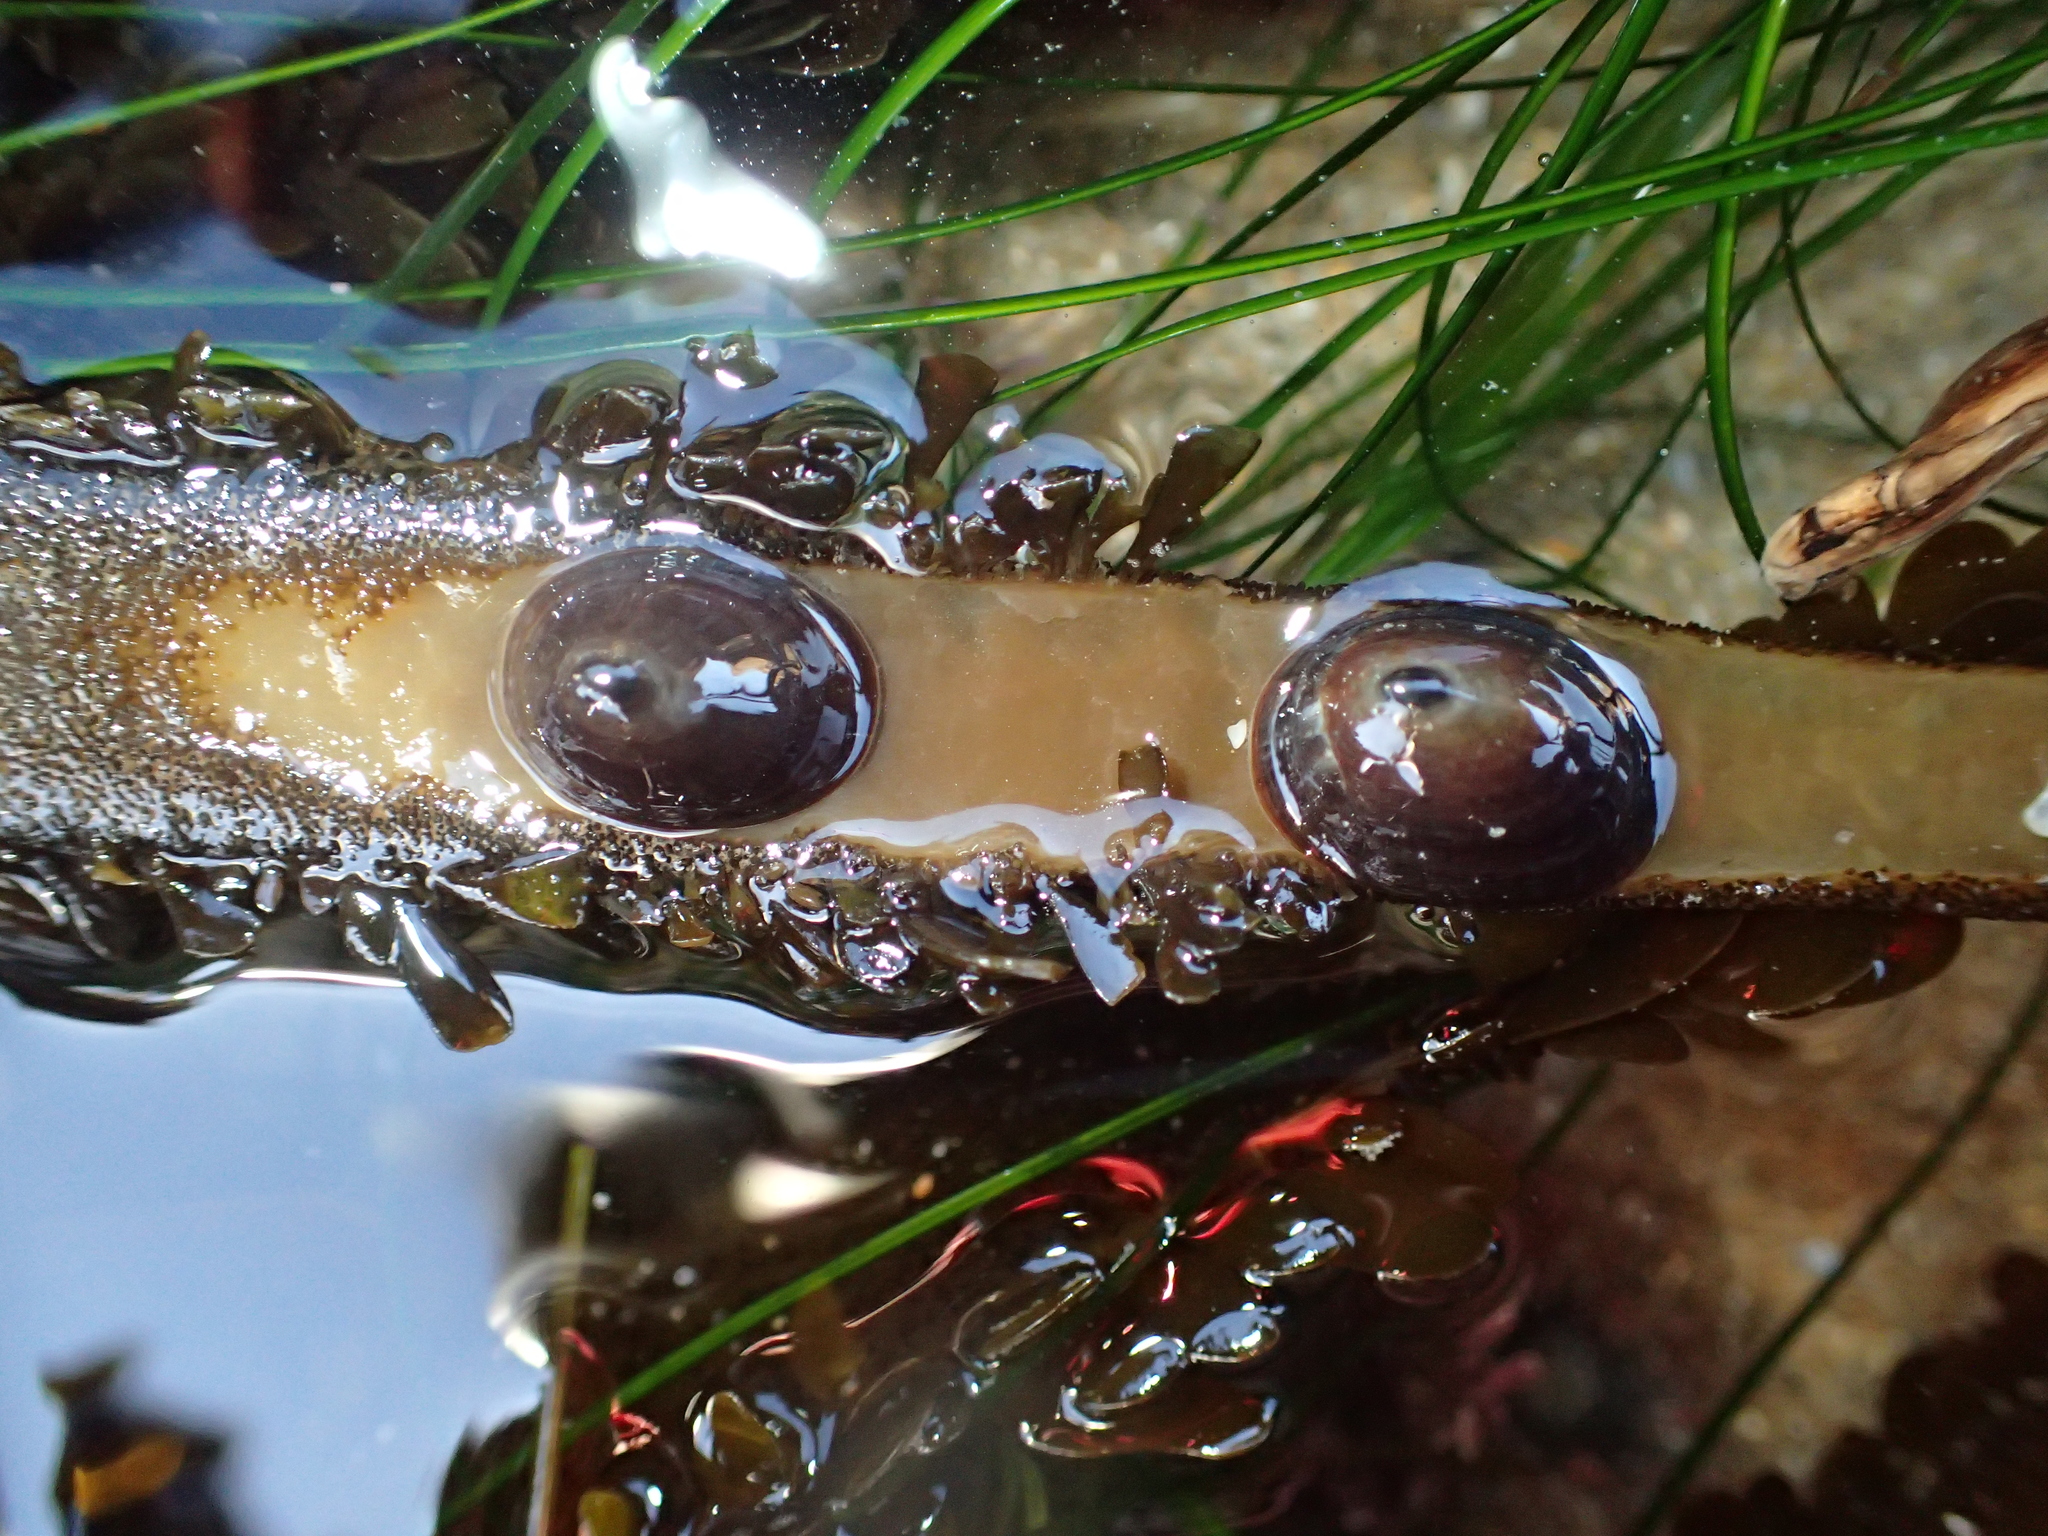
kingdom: Animalia
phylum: Mollusca
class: Gastropoda
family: Lottiidae
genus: Discurria
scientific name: Discurria insessa
